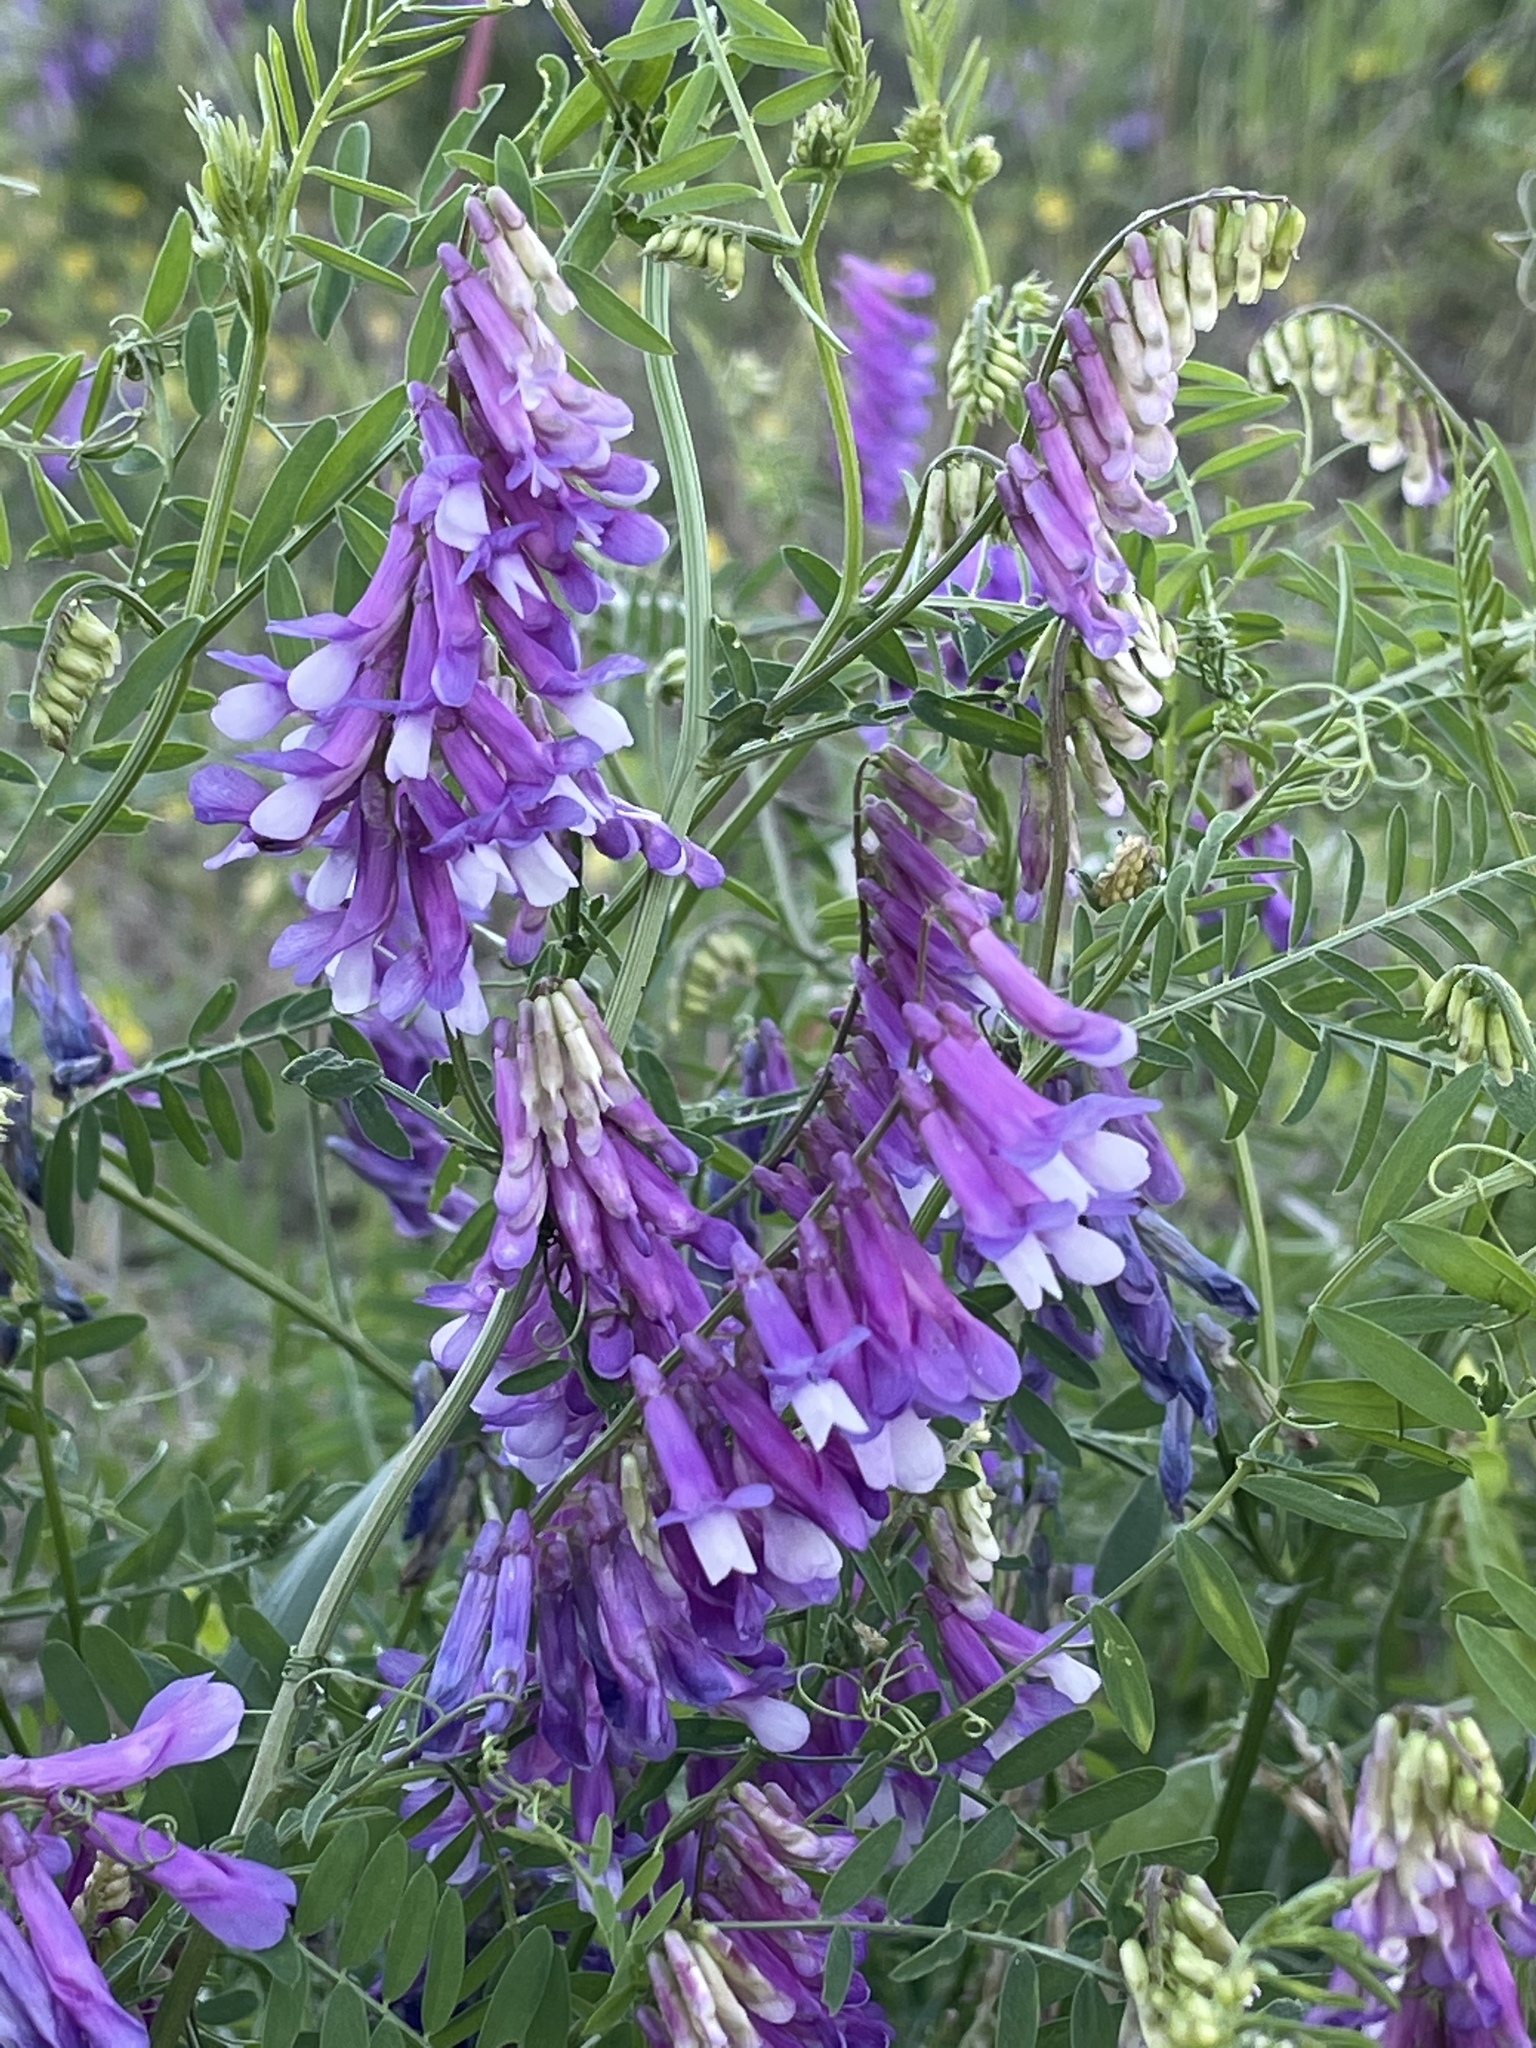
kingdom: Plantae
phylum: Tracheophyta
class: Magnoliopsida
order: Fabales
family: Fabaceae
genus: Vicia
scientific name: Vicia villosa
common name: Fodder vetch
